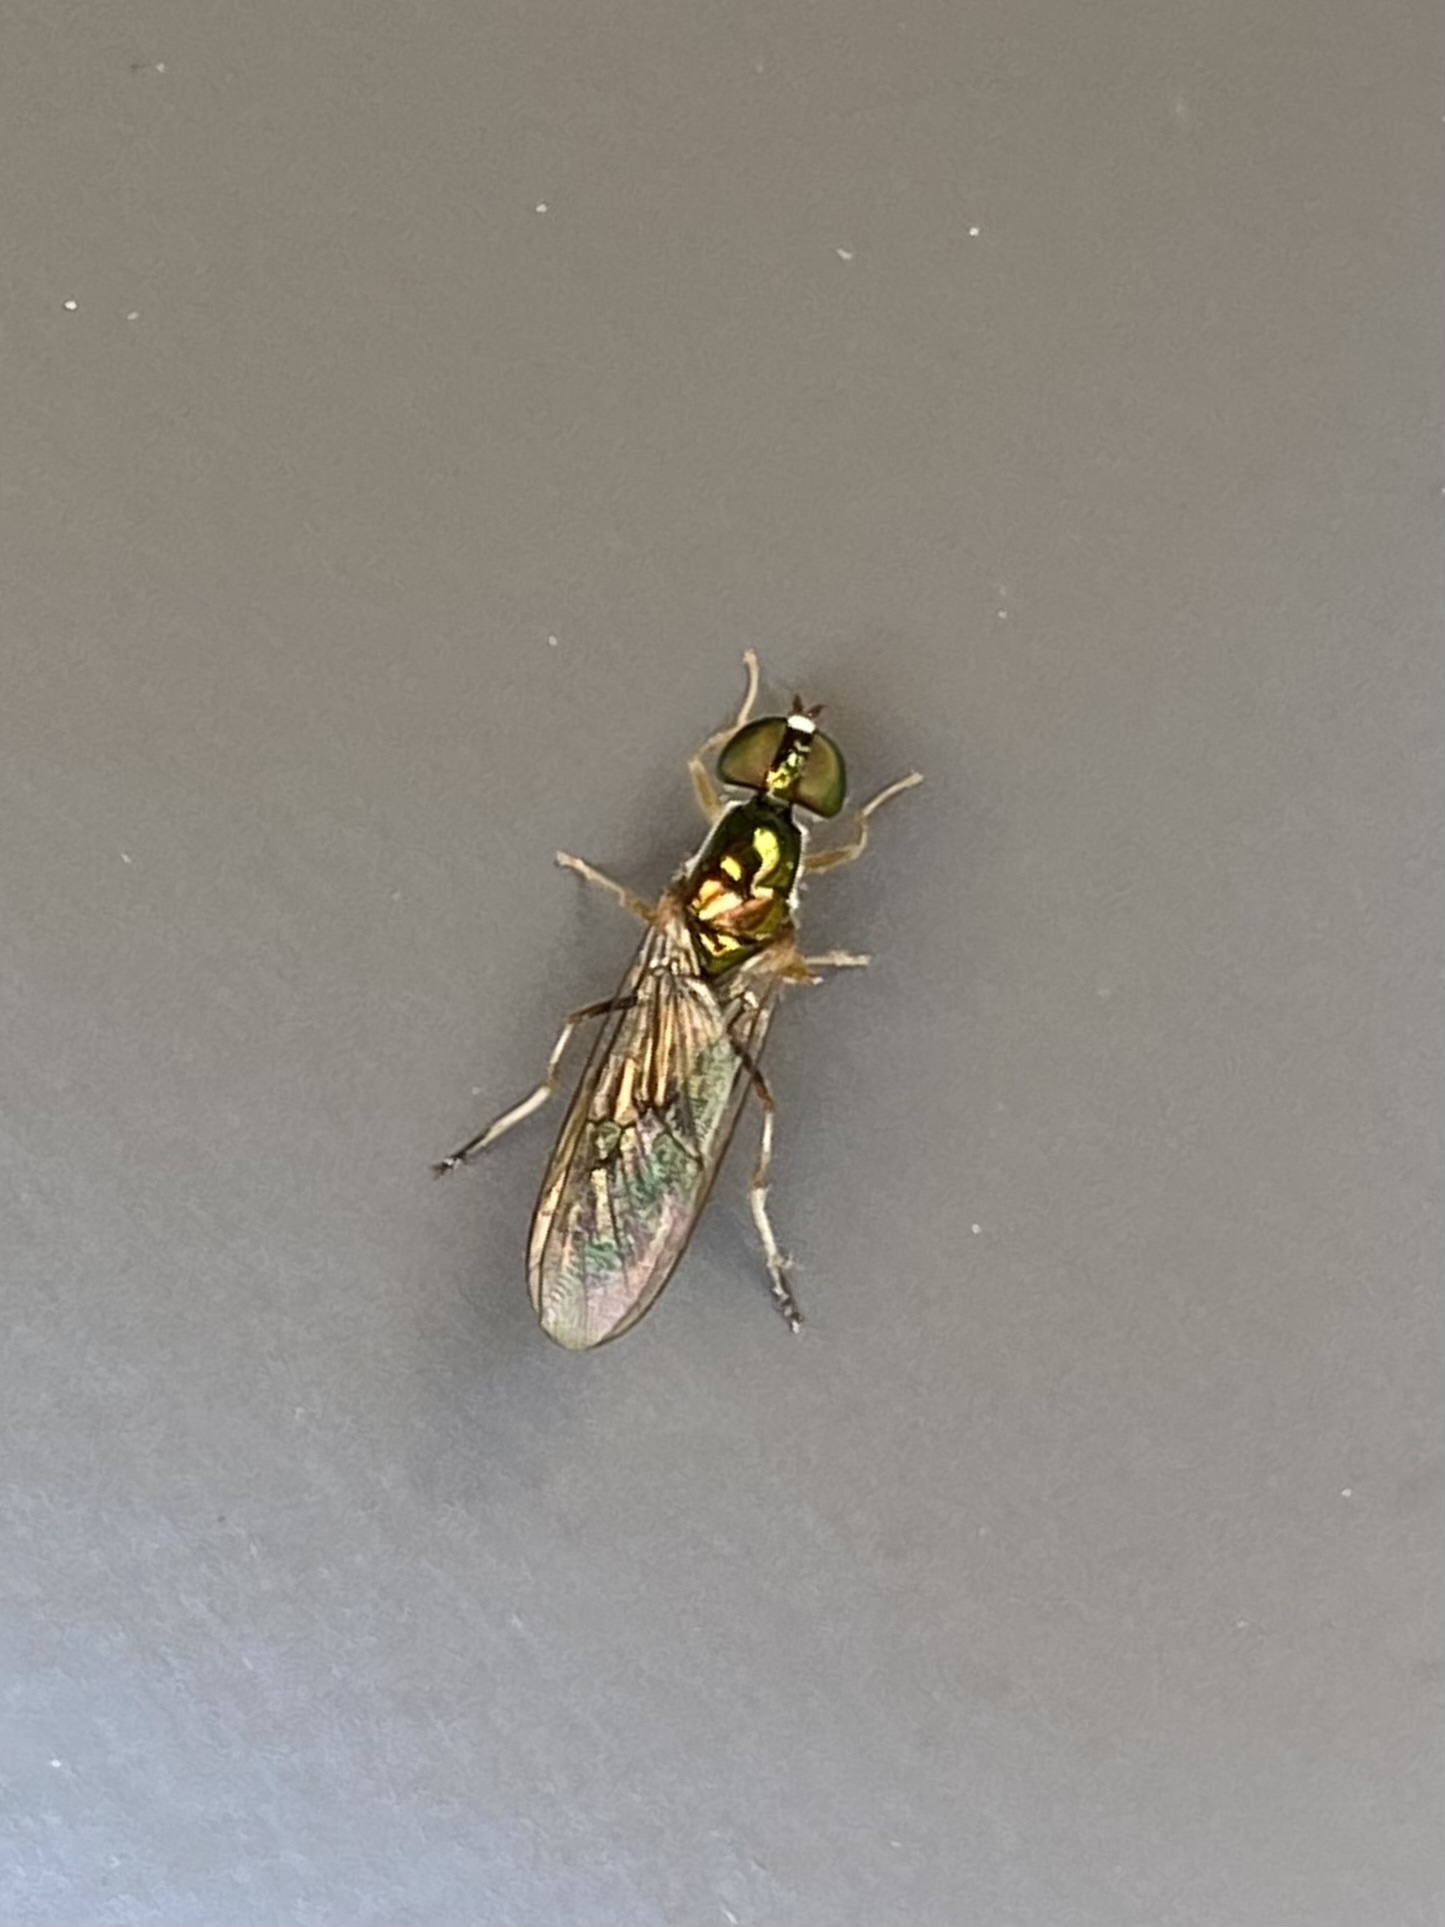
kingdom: Animalia
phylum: Arthropoda
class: Insecta
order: Diptera
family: Stratiomyidae
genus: Sargus
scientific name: Sargus fasciatus
